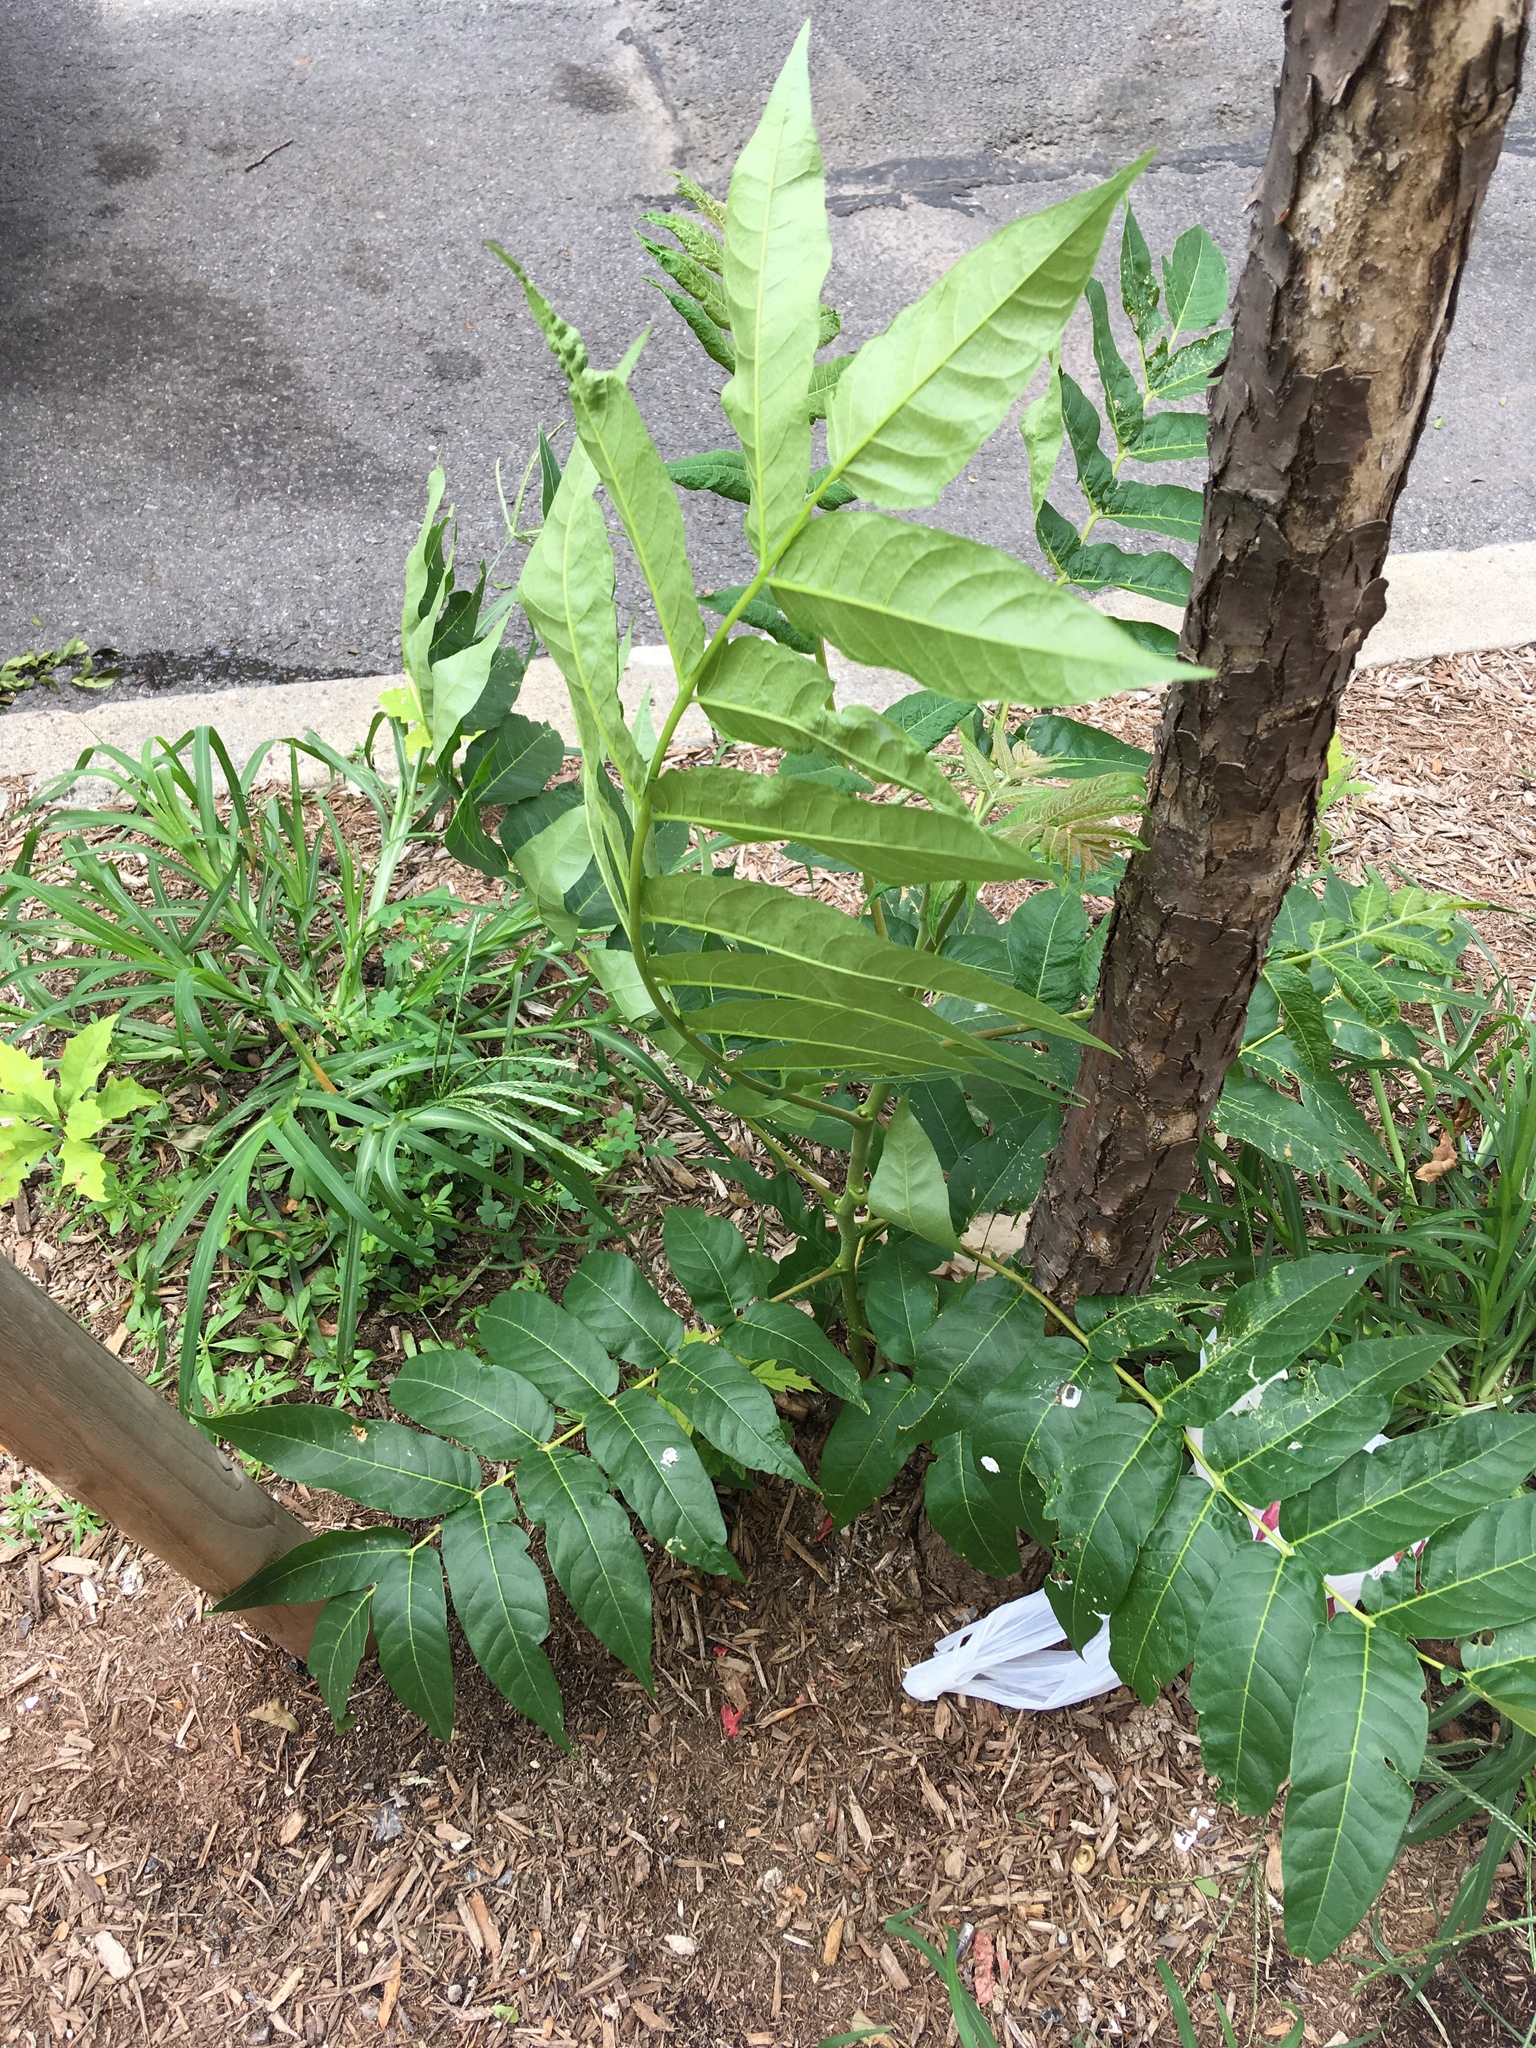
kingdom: Plantae
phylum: Tracheophyta
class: Magnoliopsida
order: Sapindales
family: Simaroubaceae
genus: Ailanthus
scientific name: Ailanthus altissima
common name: Tree-of-heaven
